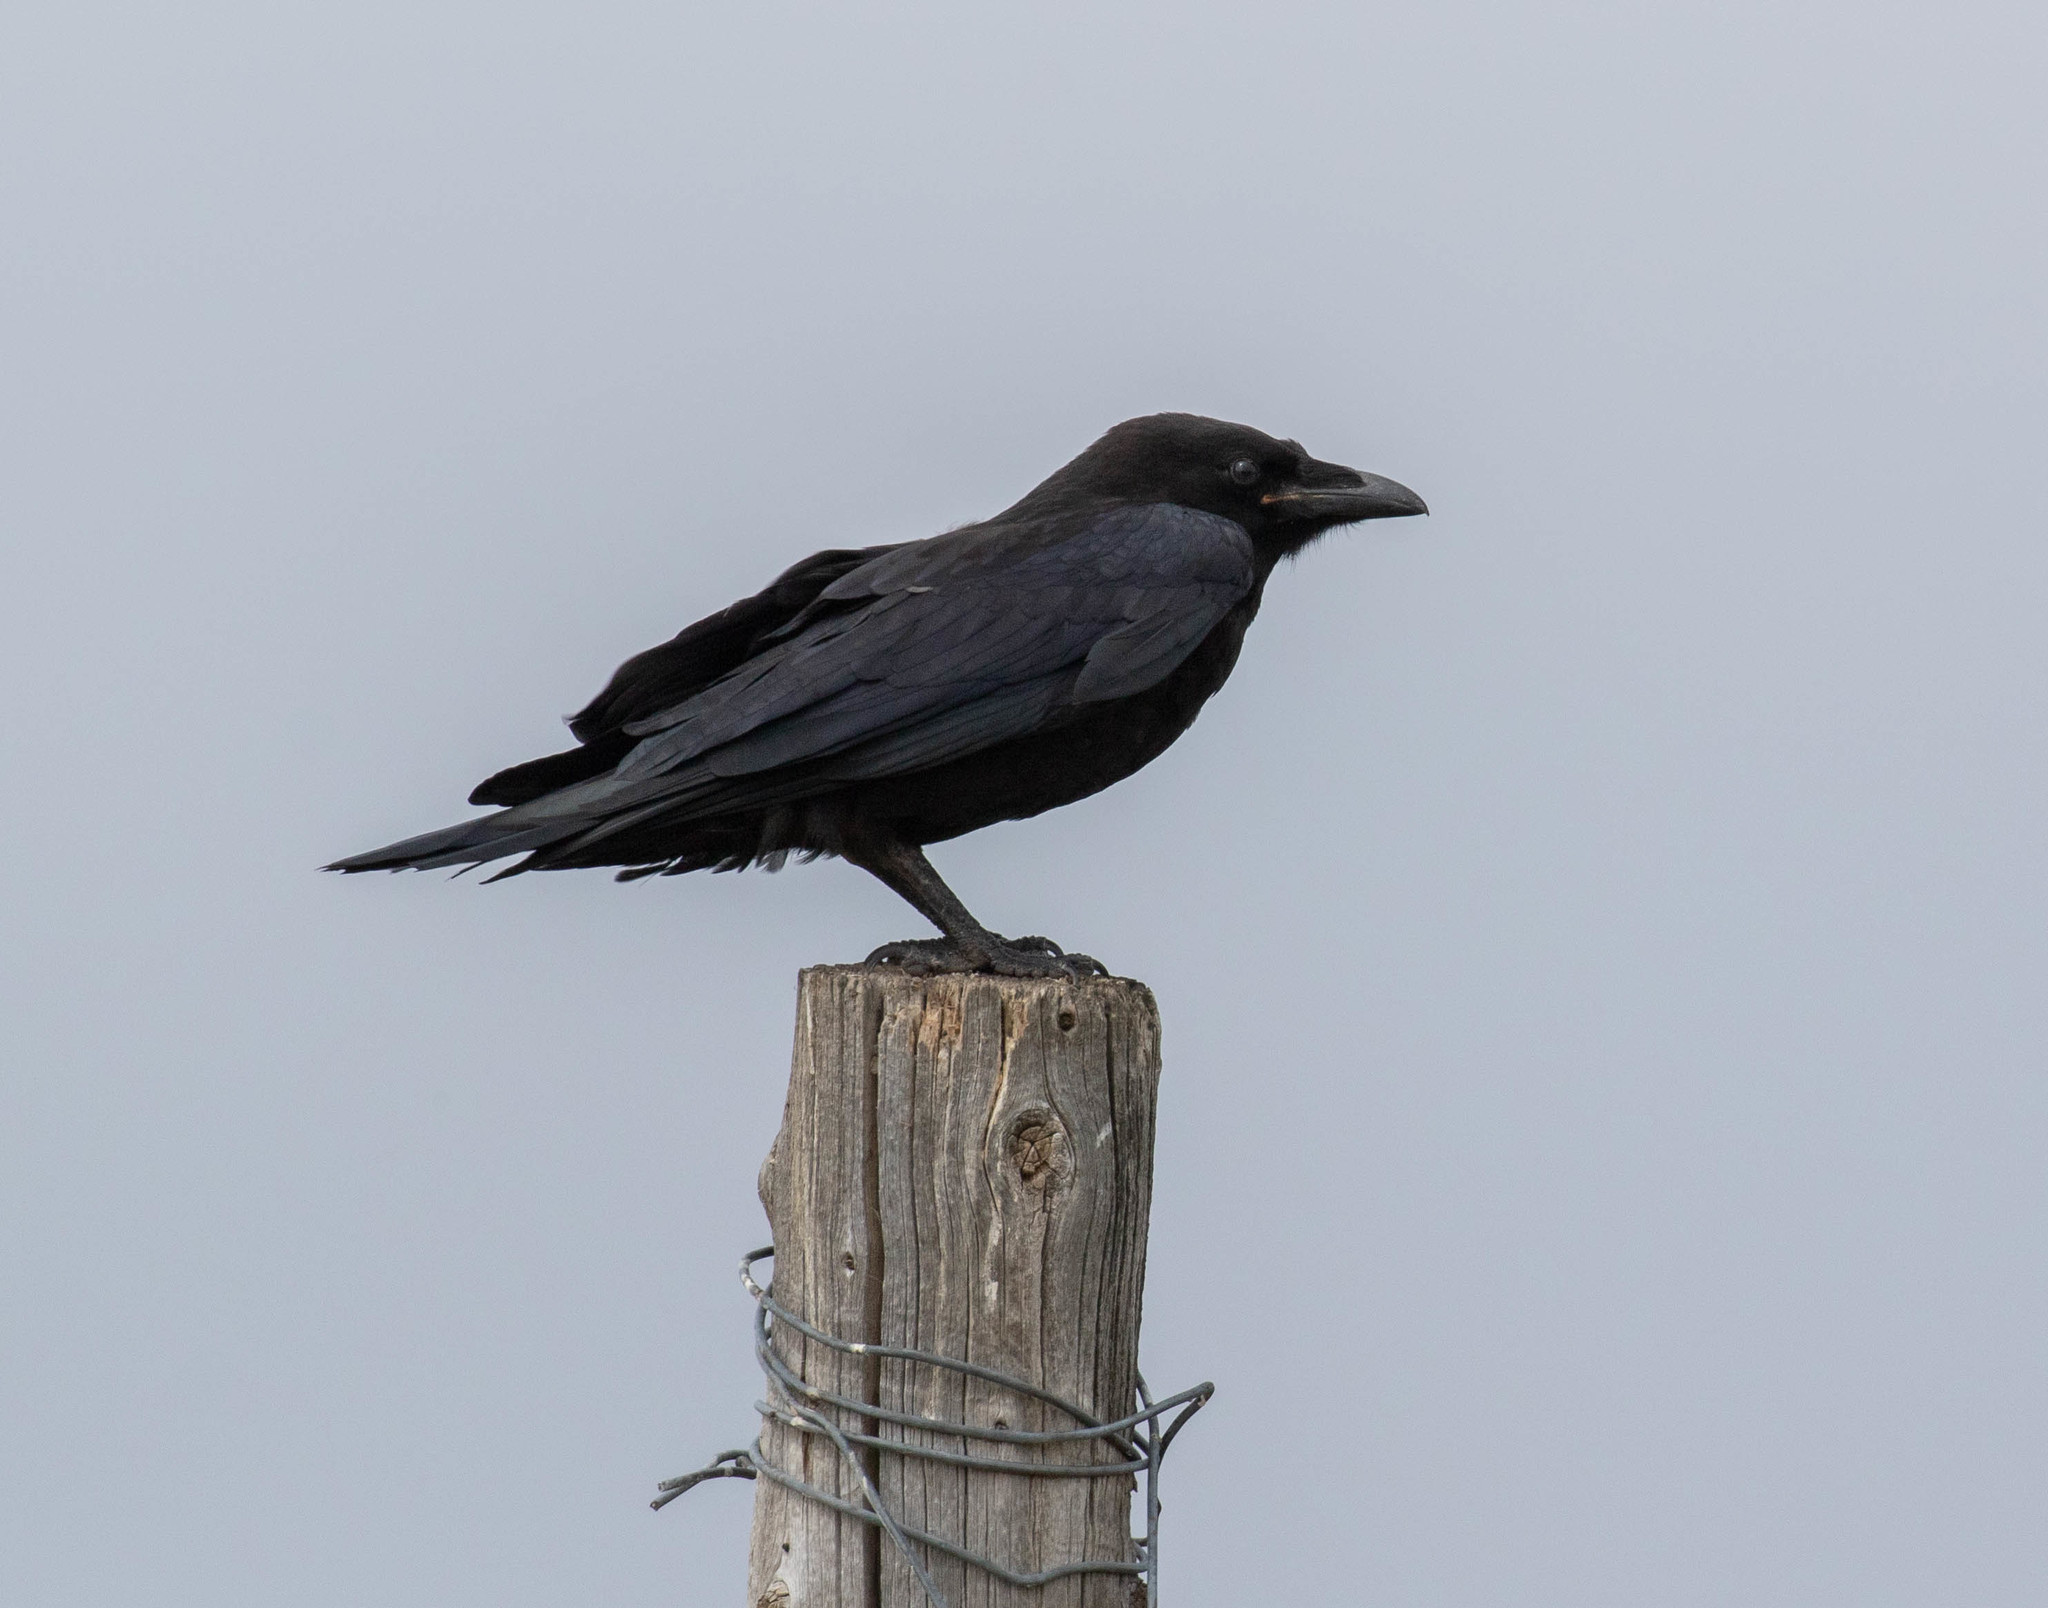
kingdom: Animalia
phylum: Chordata
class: Aves
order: Passeriformes
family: Corvidae
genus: Corvus
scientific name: Corvus corax
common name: Common raven
